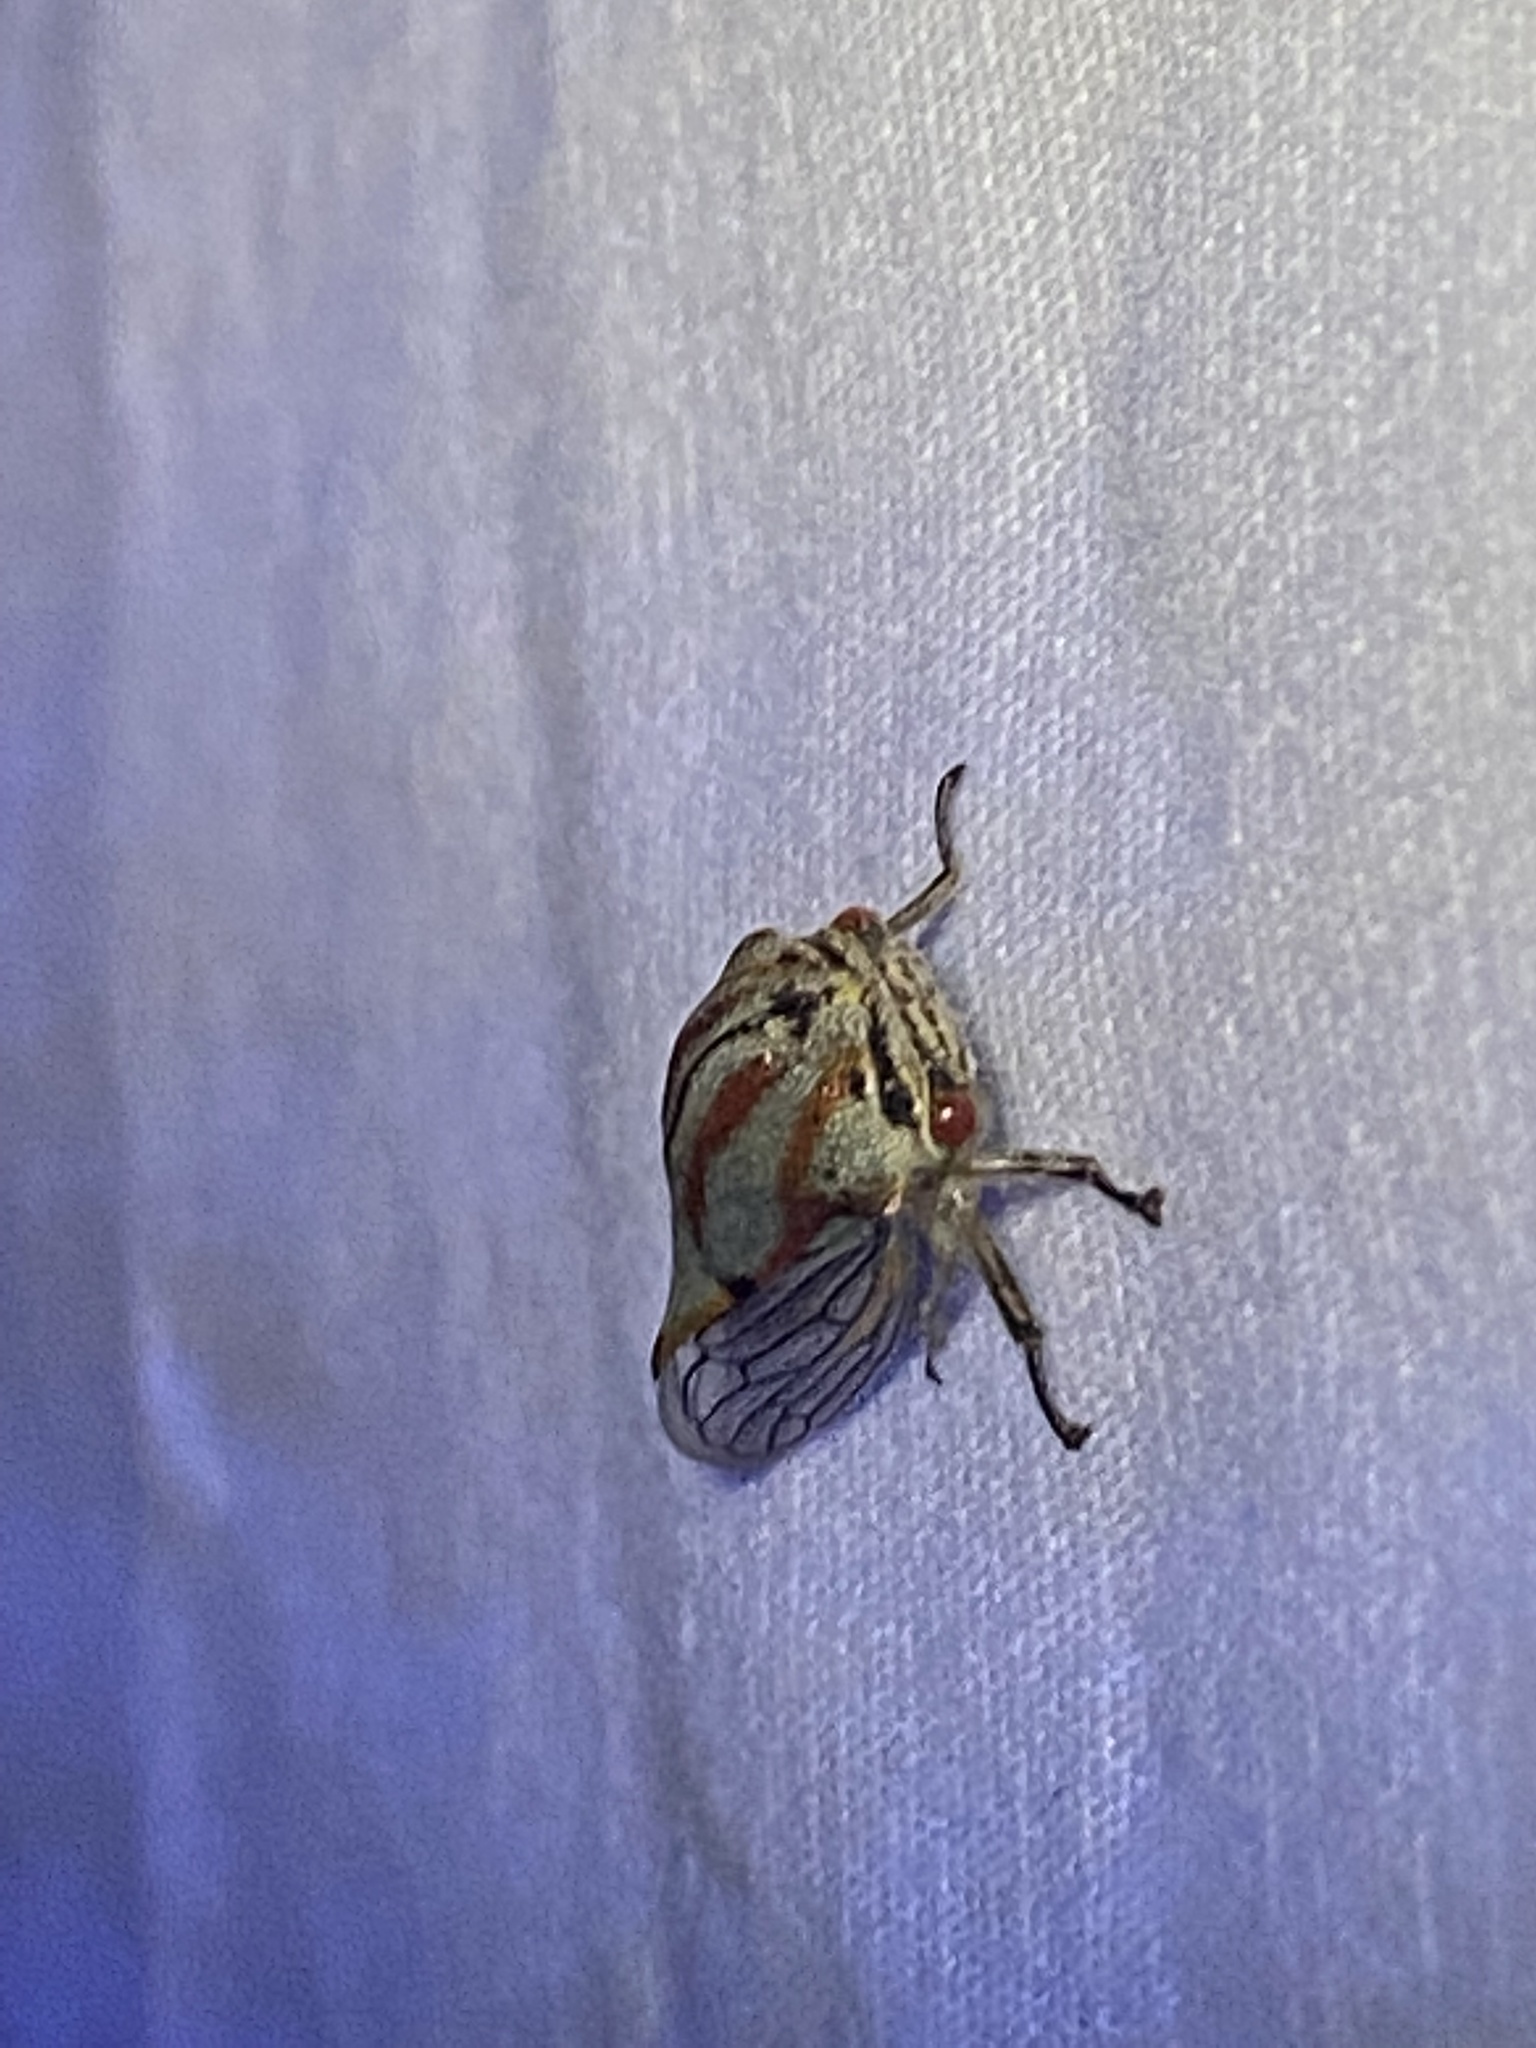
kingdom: Animalia
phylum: Arthropoda
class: Insecta
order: Hemiptera
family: Membracidae
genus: Platycotis
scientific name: Platycotis vittatus
